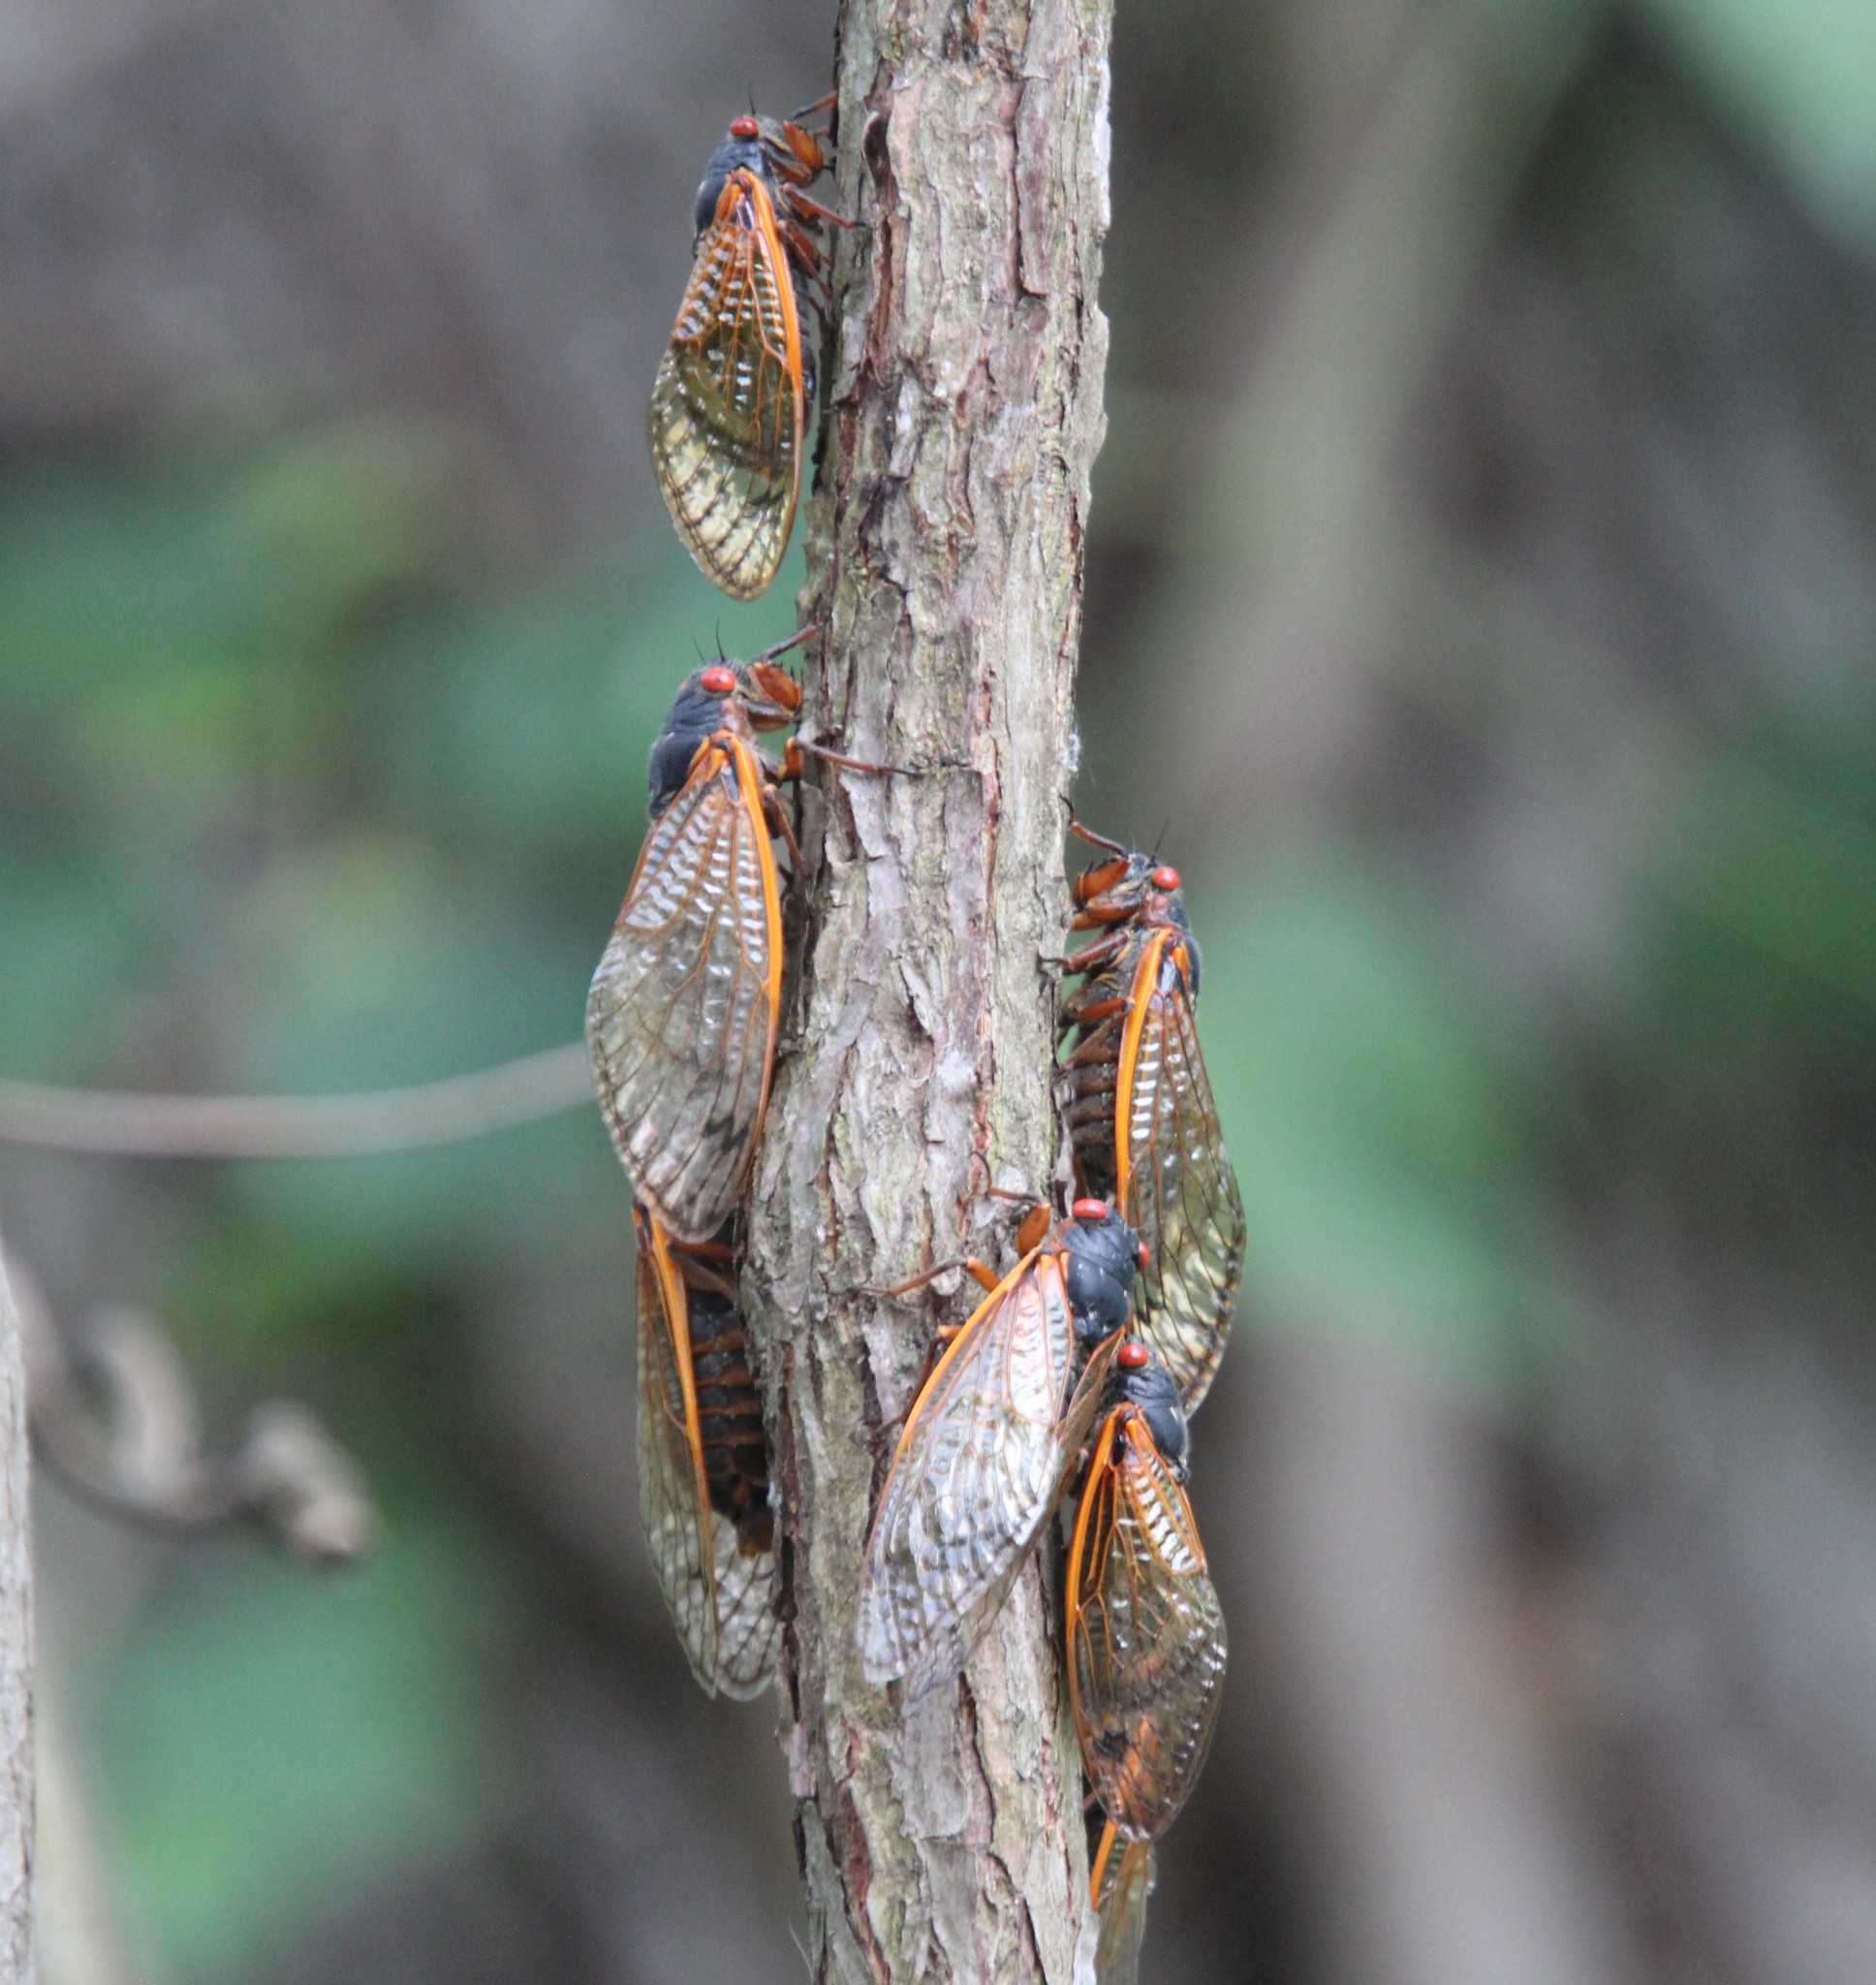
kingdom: Animalia
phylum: Arthropoda
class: Insecta
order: Hemiptera
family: Cicadidae
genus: Magicicada
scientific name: Magicicada septendecim
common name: Periodical cicada
